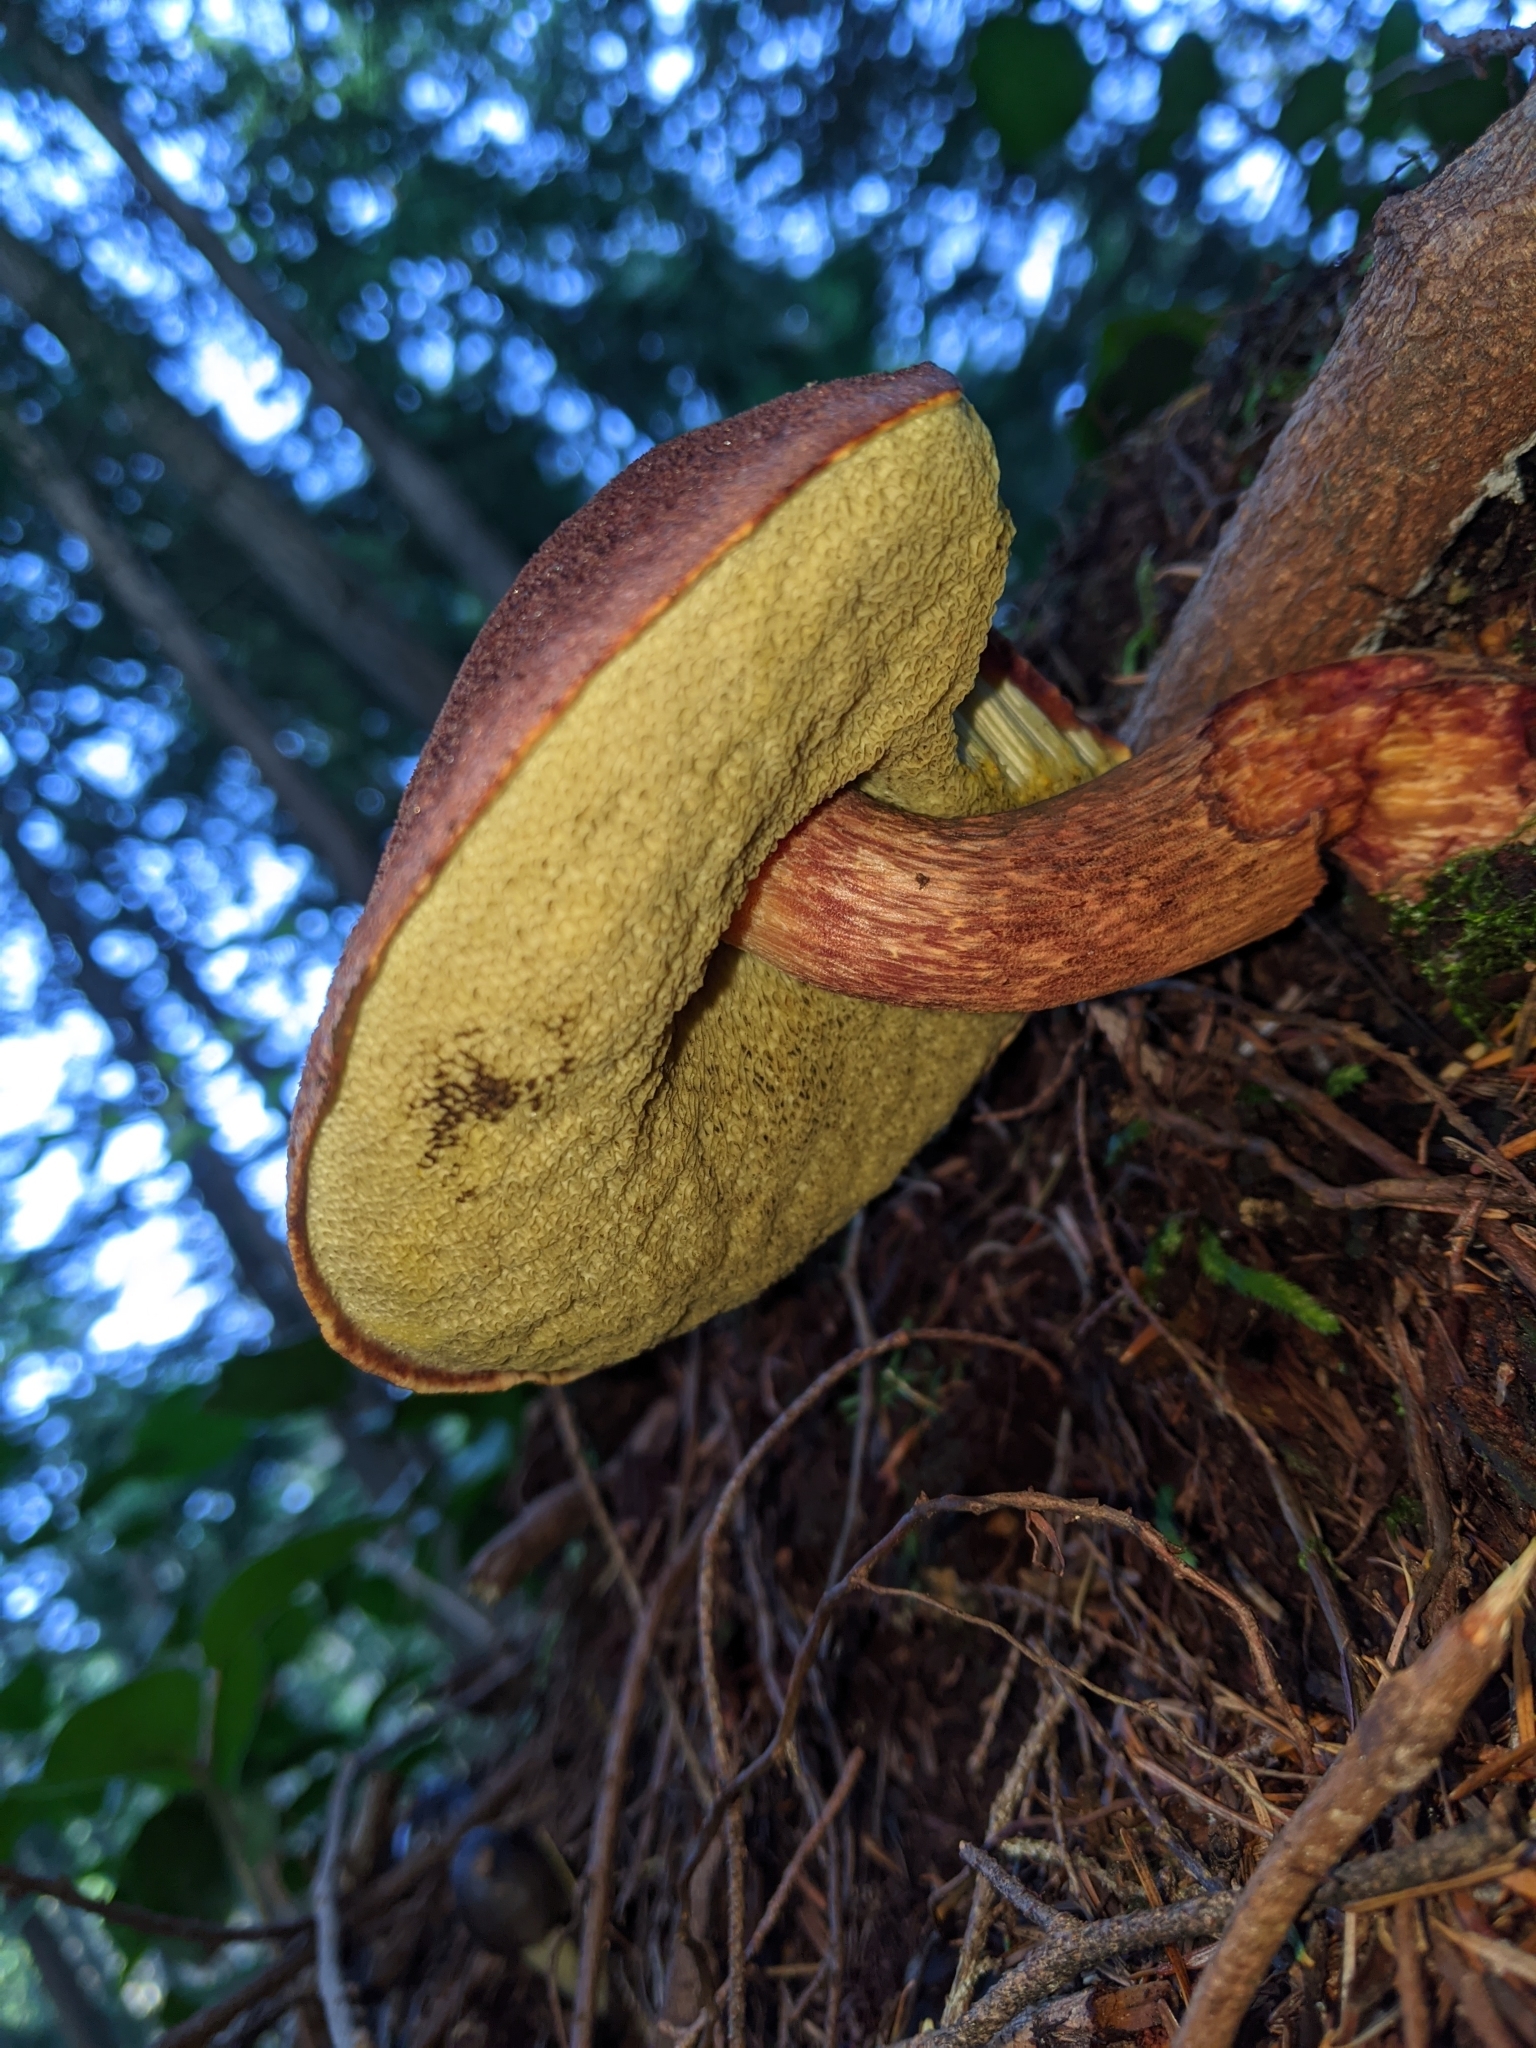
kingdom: Fungi
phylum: Basidiomycota
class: Agaricomycetes
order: Boletales
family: Boletaceae
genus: Aureoboletus
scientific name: Aureoboletus mirabilis
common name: Admirable bolete
